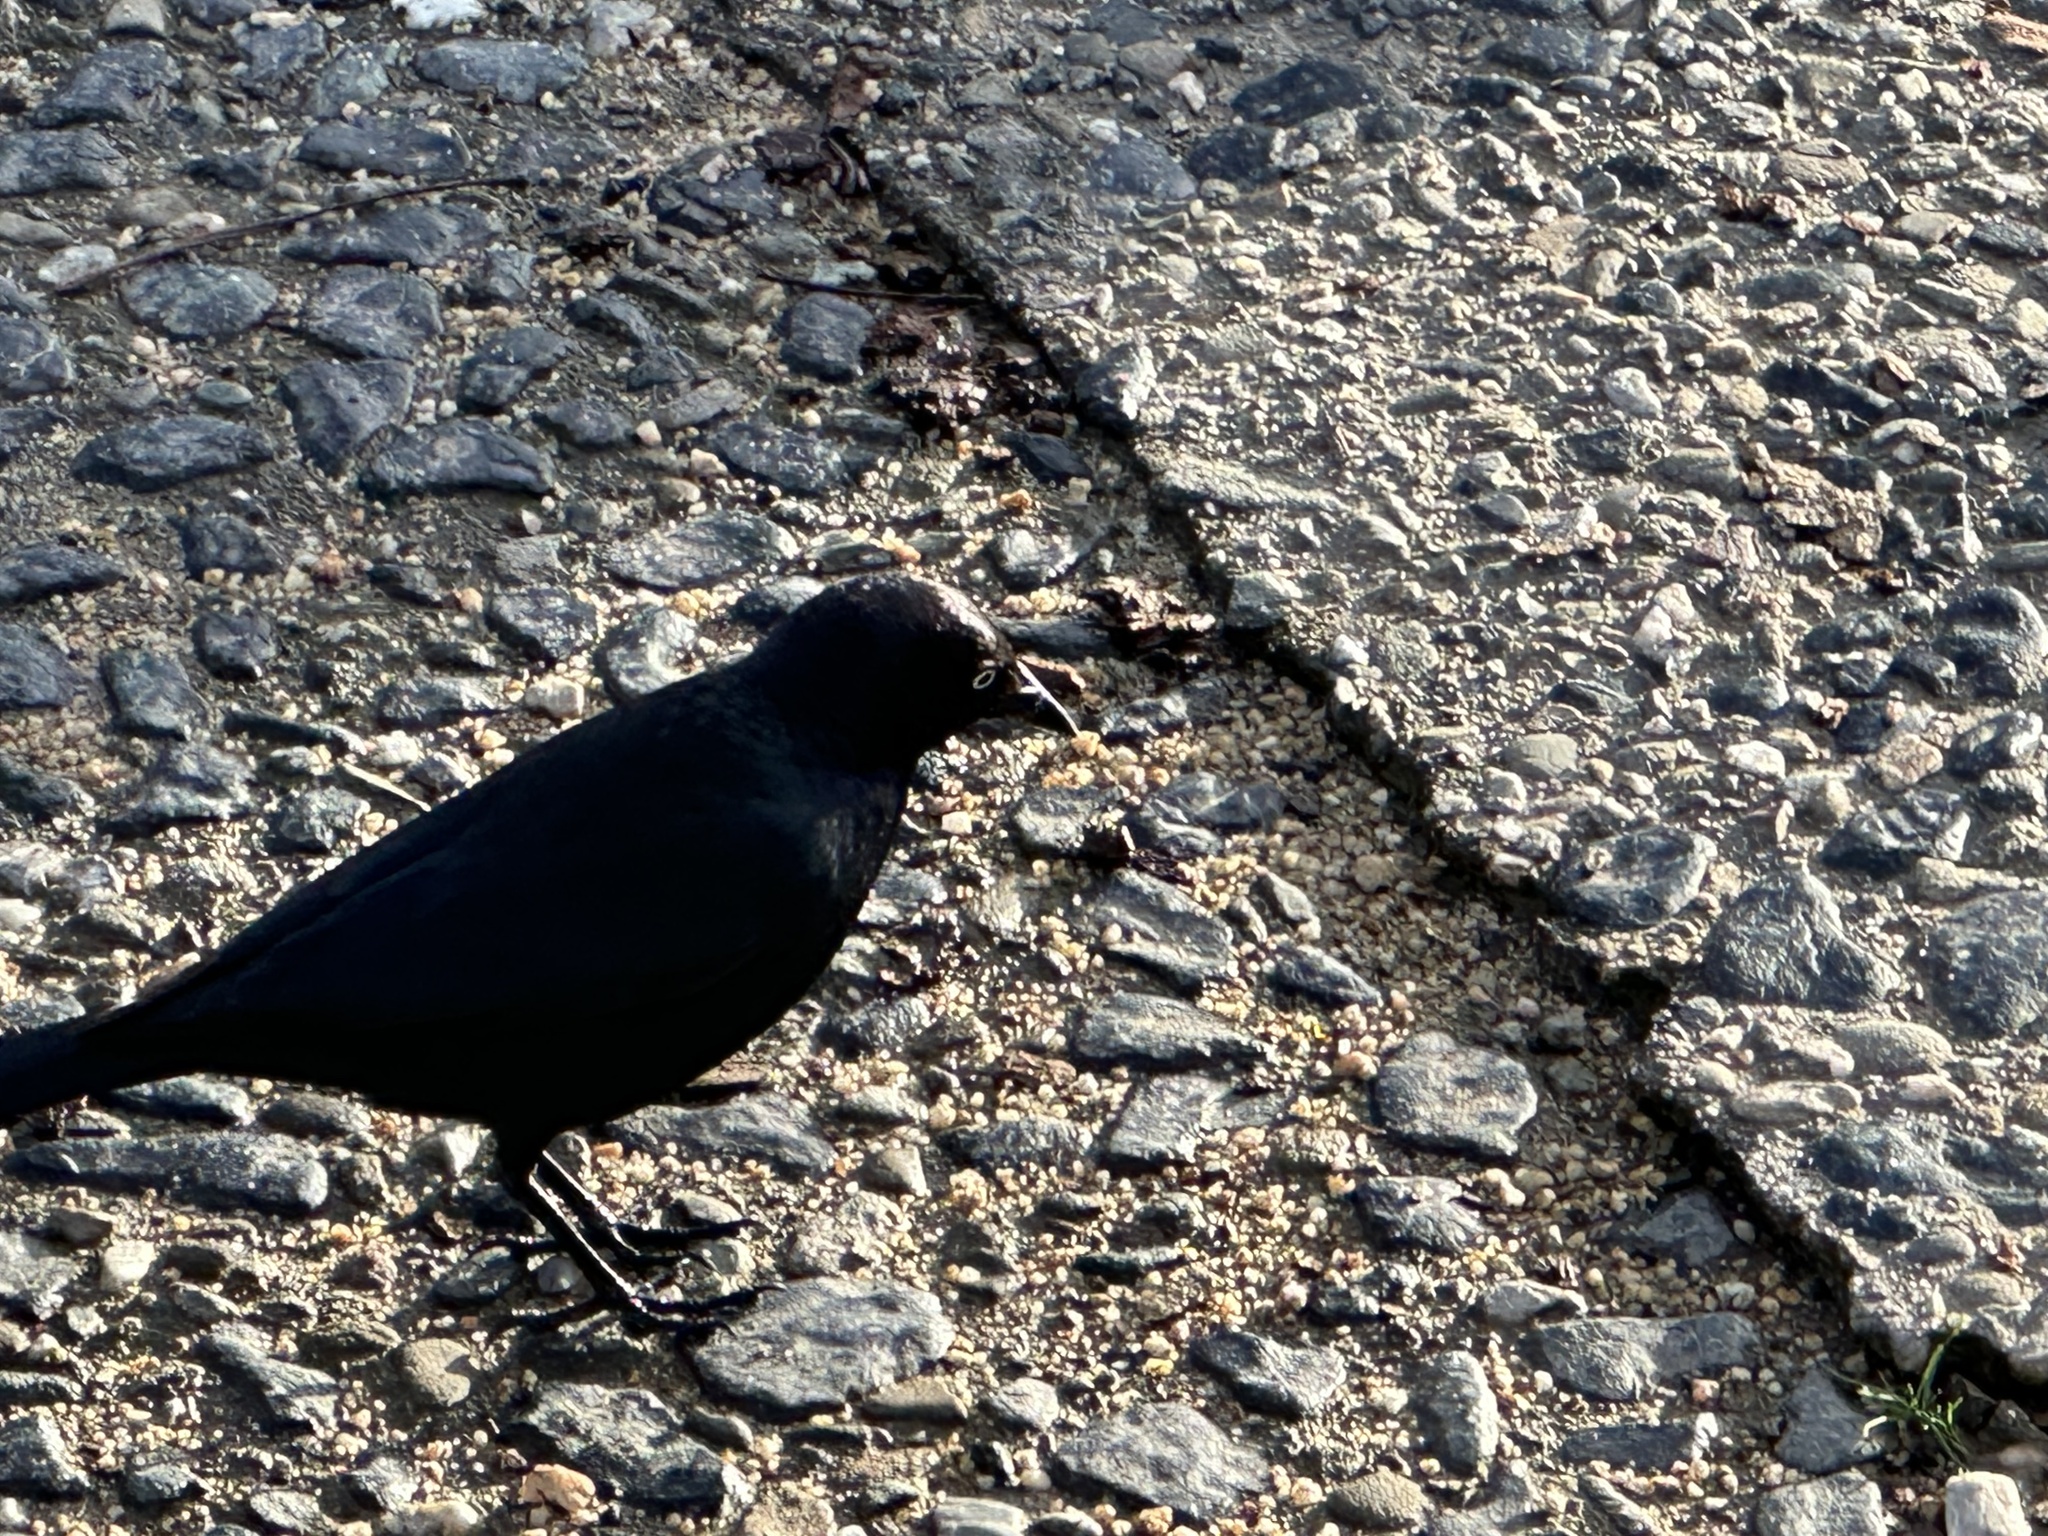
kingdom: Animalia
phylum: Chordata
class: Aves
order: Passeriformes
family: Icteridae
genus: Euphagus
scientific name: Euphagus cyanocephalus
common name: Brewer's blackbird
